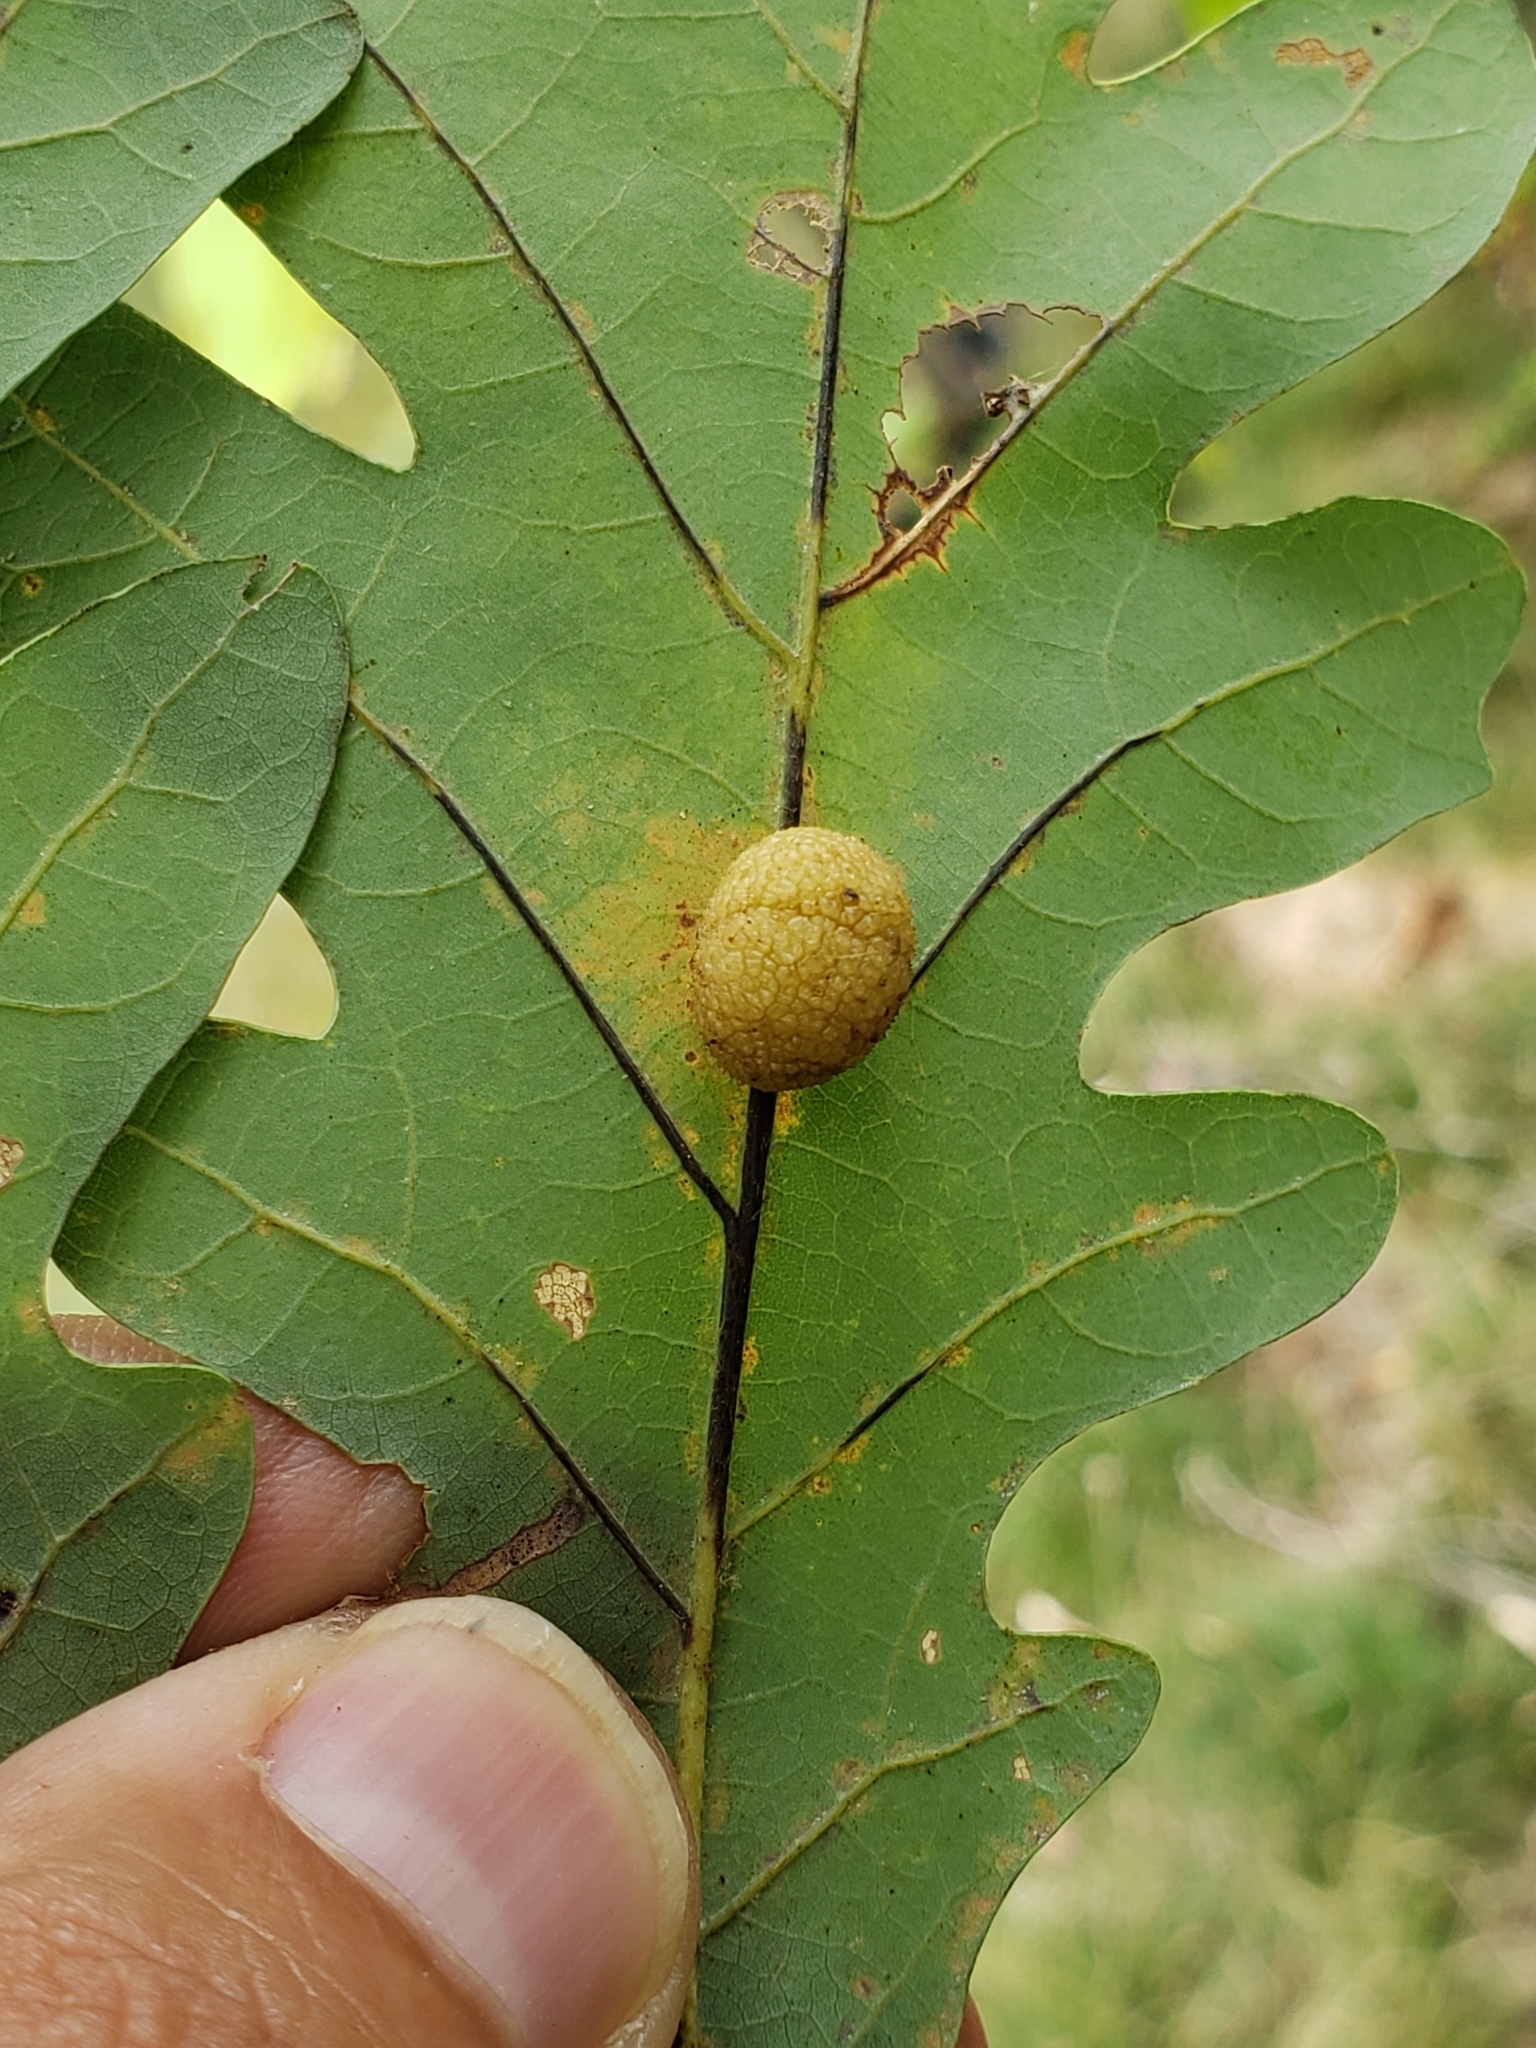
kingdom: Animalia
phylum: Arthropoda
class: Insecta
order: Hymenoptera
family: Cynipidae
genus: Acraspis
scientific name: Acraspis
